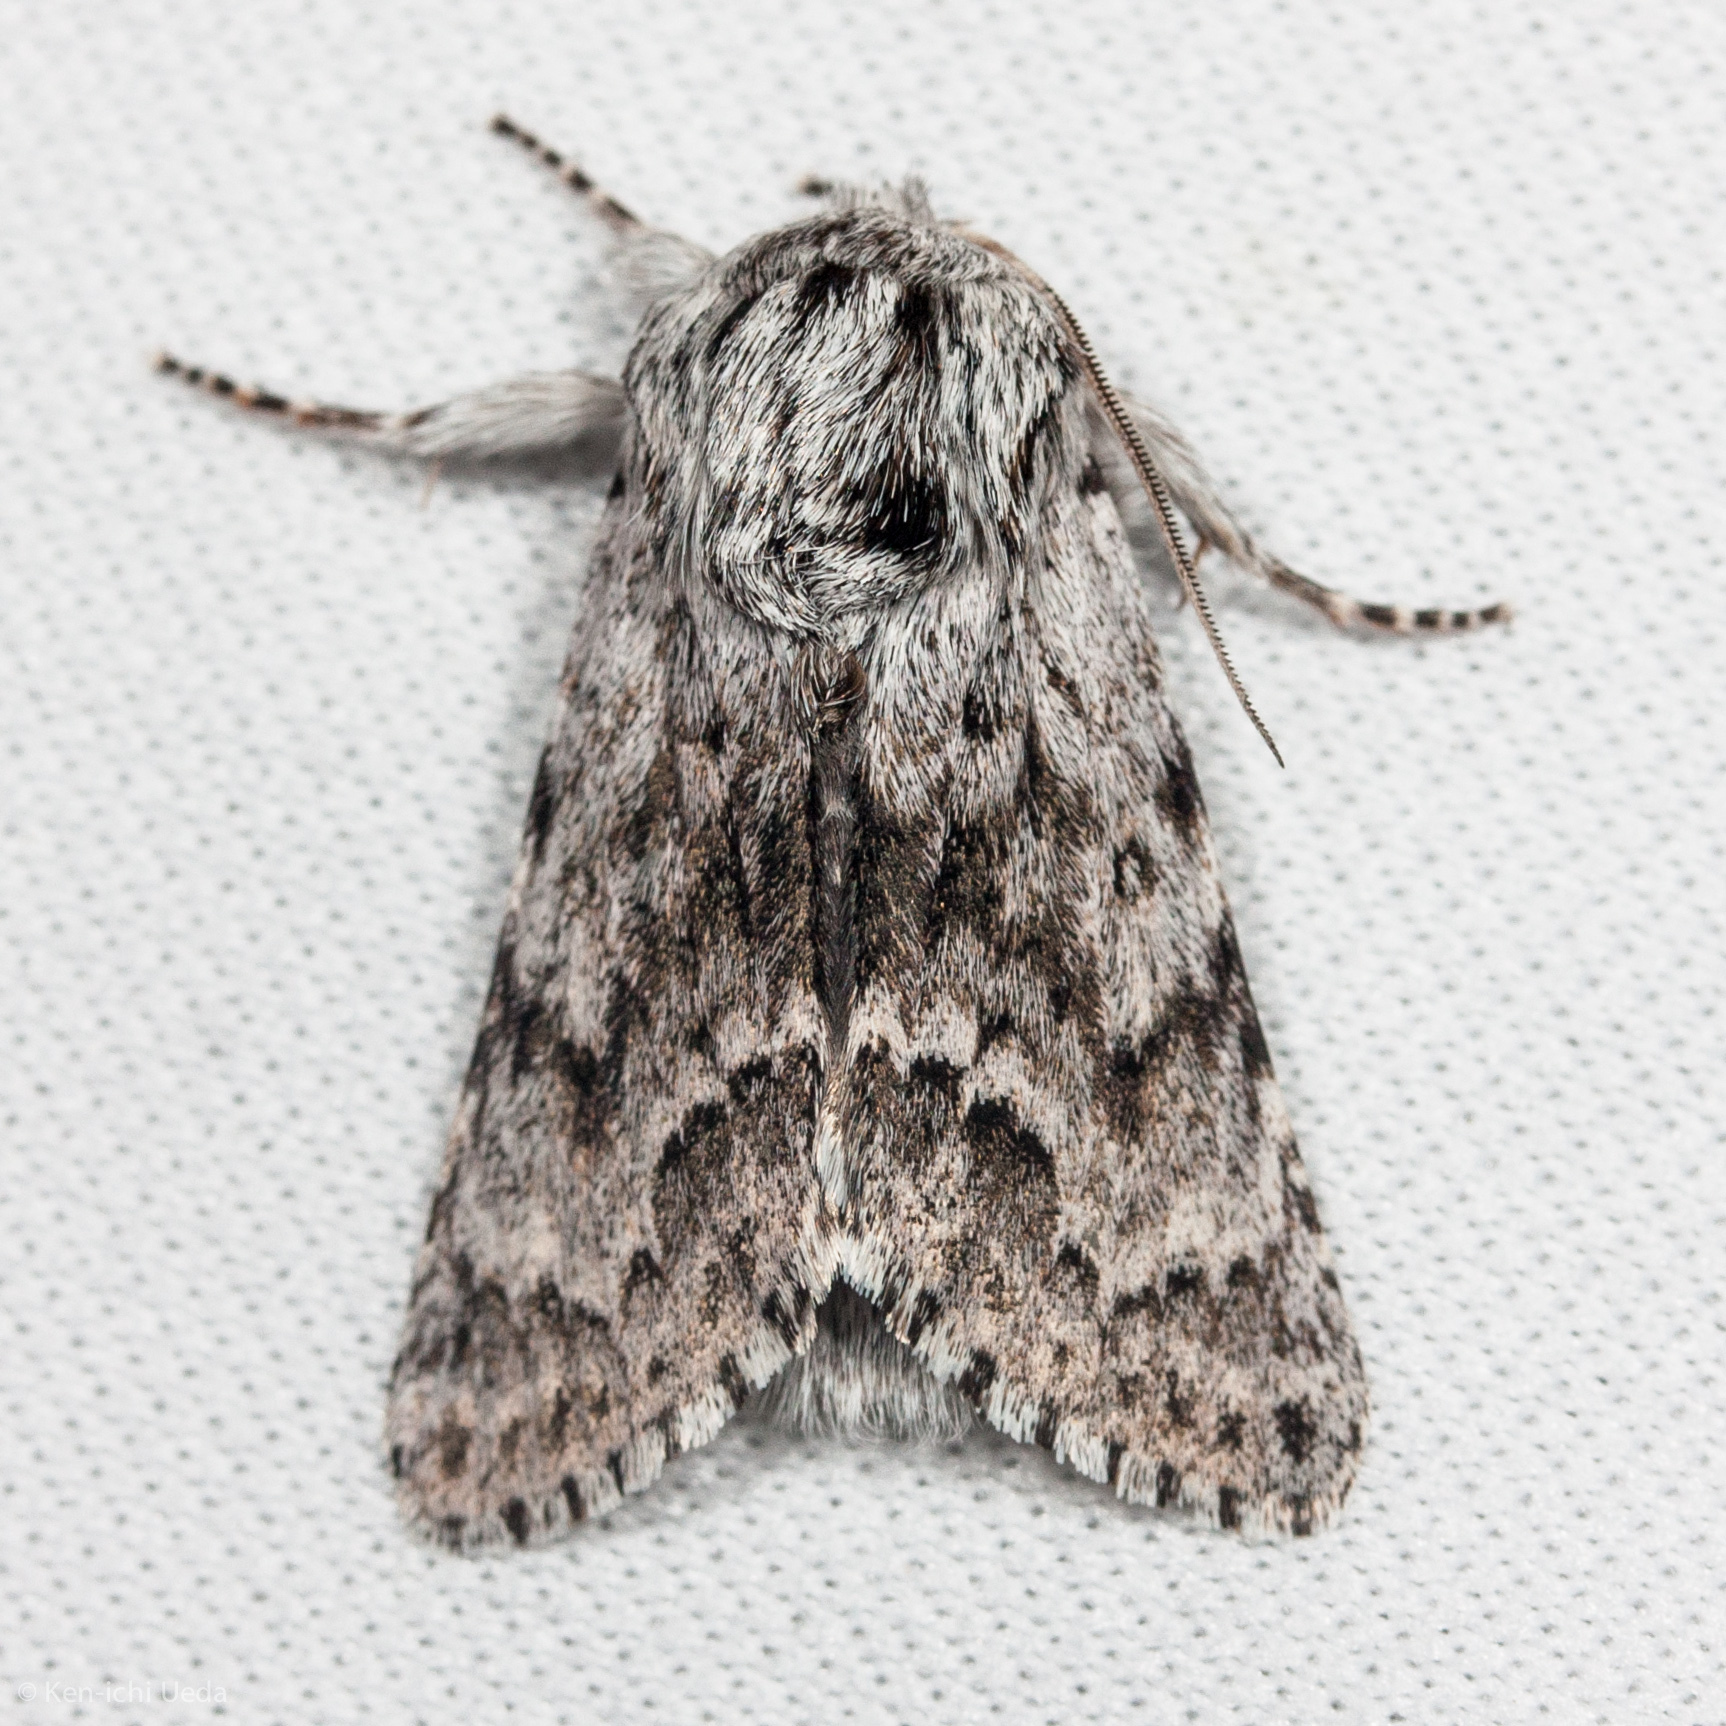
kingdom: Animalia
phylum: Arthropoda
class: Insecta
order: Lepidoptera
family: Noctuidae
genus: Acronicta
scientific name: Acronicta spinea
